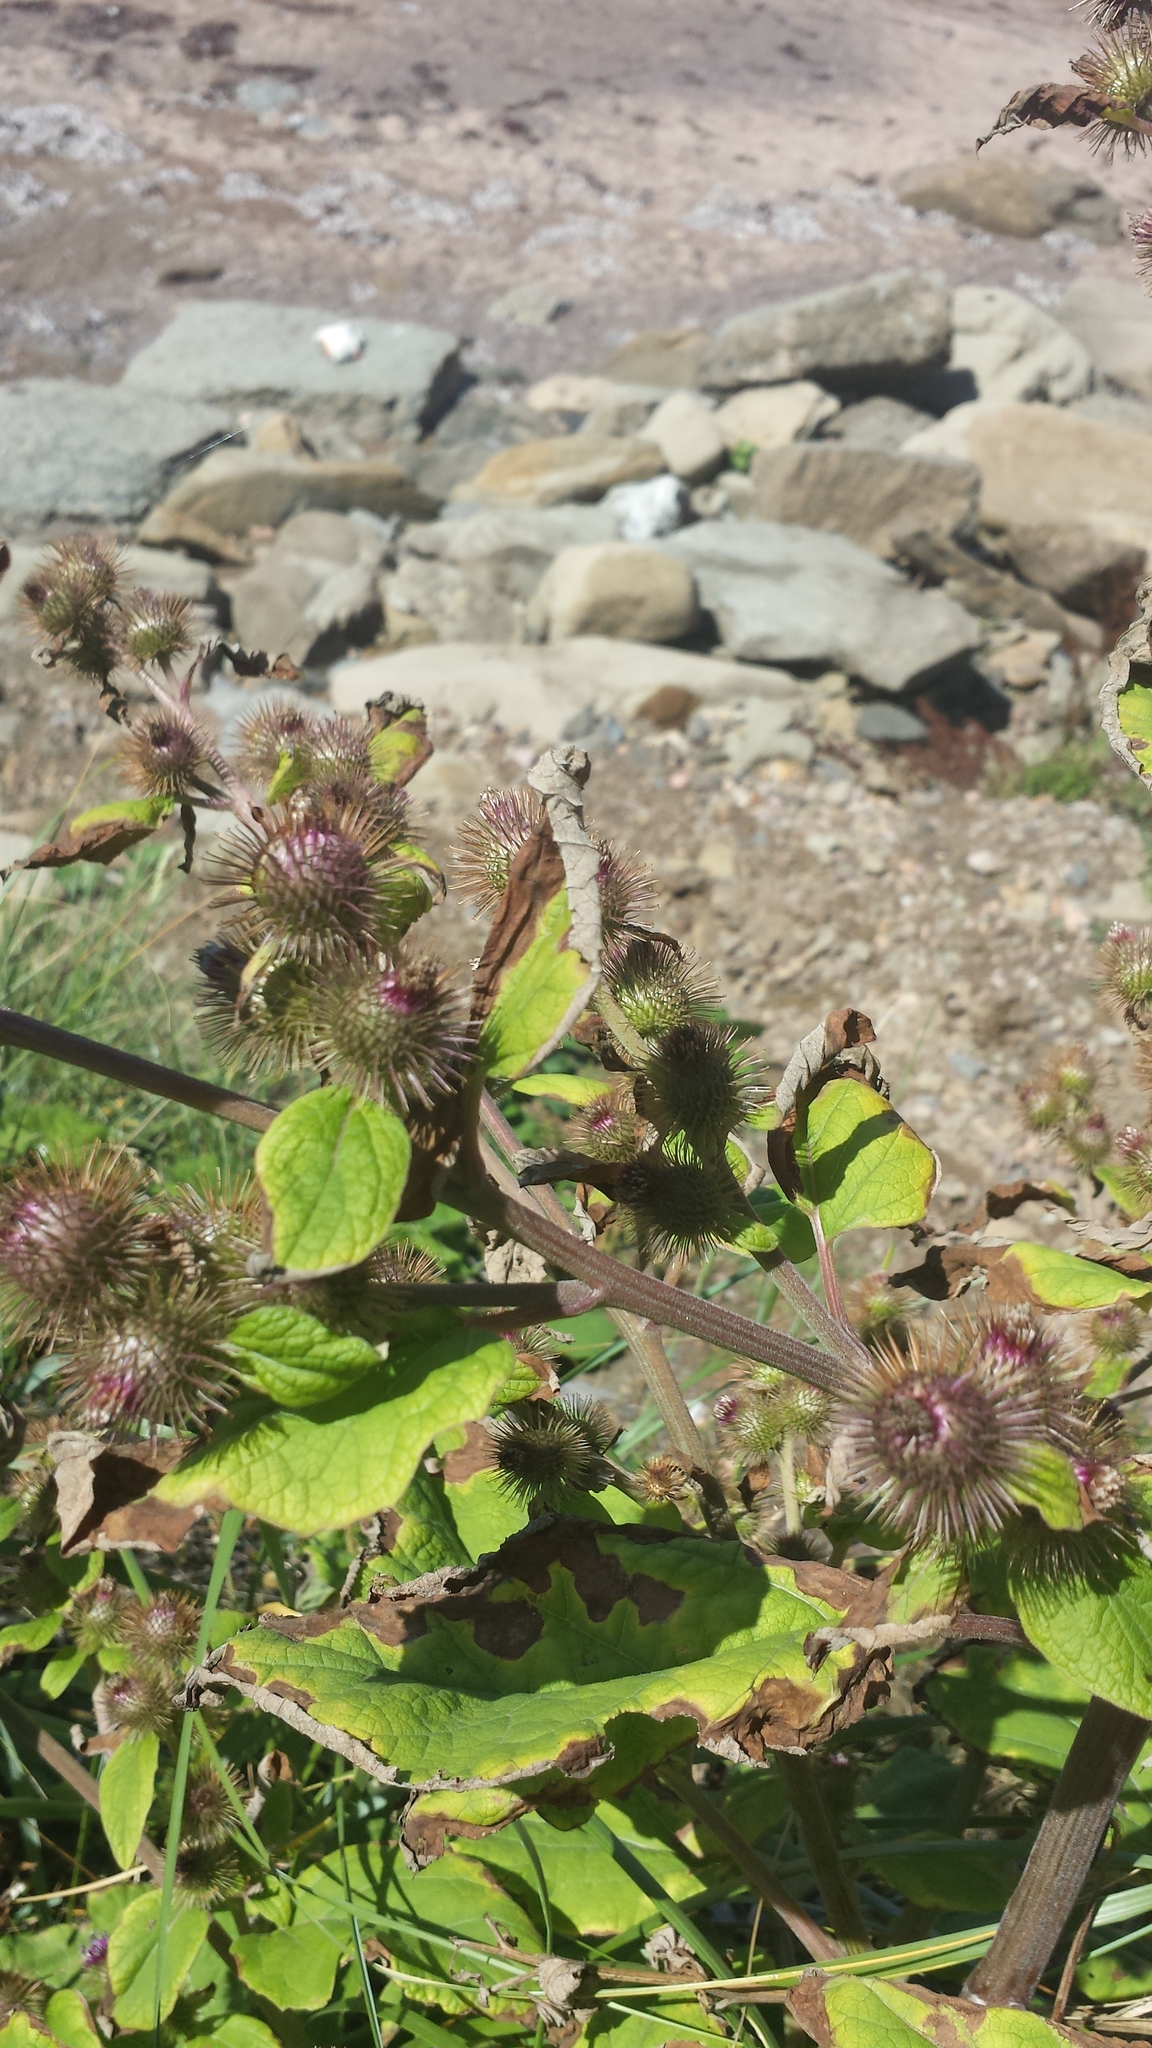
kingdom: Plantae
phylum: Tracheophyta
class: Magnoliopsida
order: Asterales
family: Asteraceae
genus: Arctium
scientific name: Arctium minus
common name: Lesser burdock
